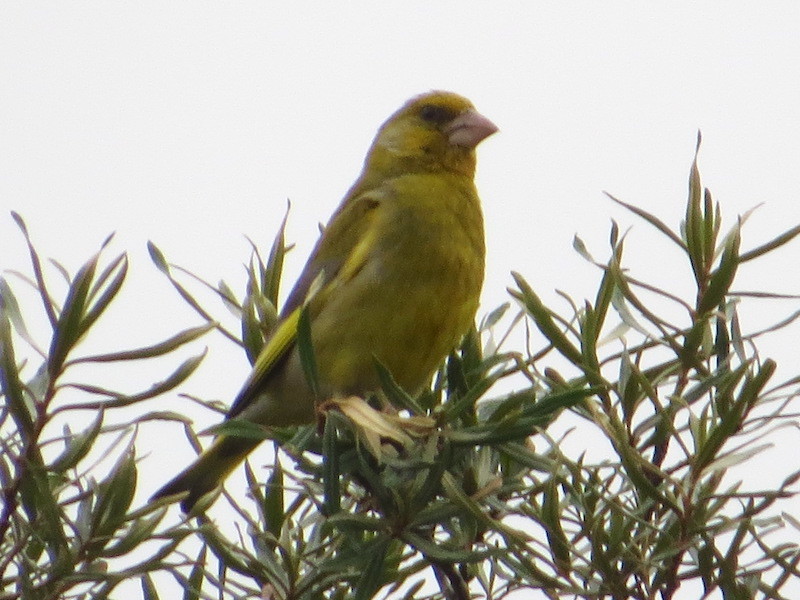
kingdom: Plantae
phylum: Tracheophyta
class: Liliopsida
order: Poales
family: Poaceae
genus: Chloris
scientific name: Chloris chloris
